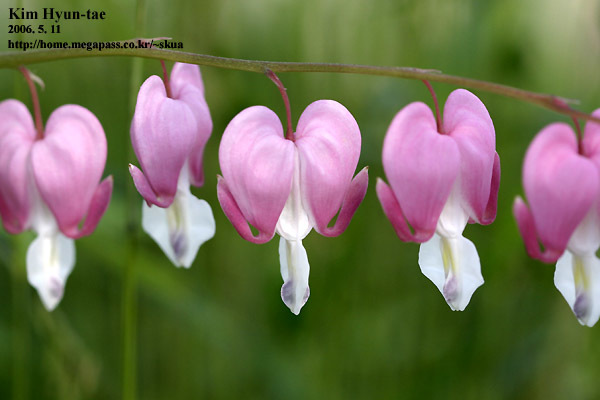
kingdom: Plantae
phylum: Tracheophyta
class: Magnoliopsida
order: Ranunculales
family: Papaveraceae
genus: Lamprocapnos
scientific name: Lamprocapnos spectabilis
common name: Asian bleeding-heart
